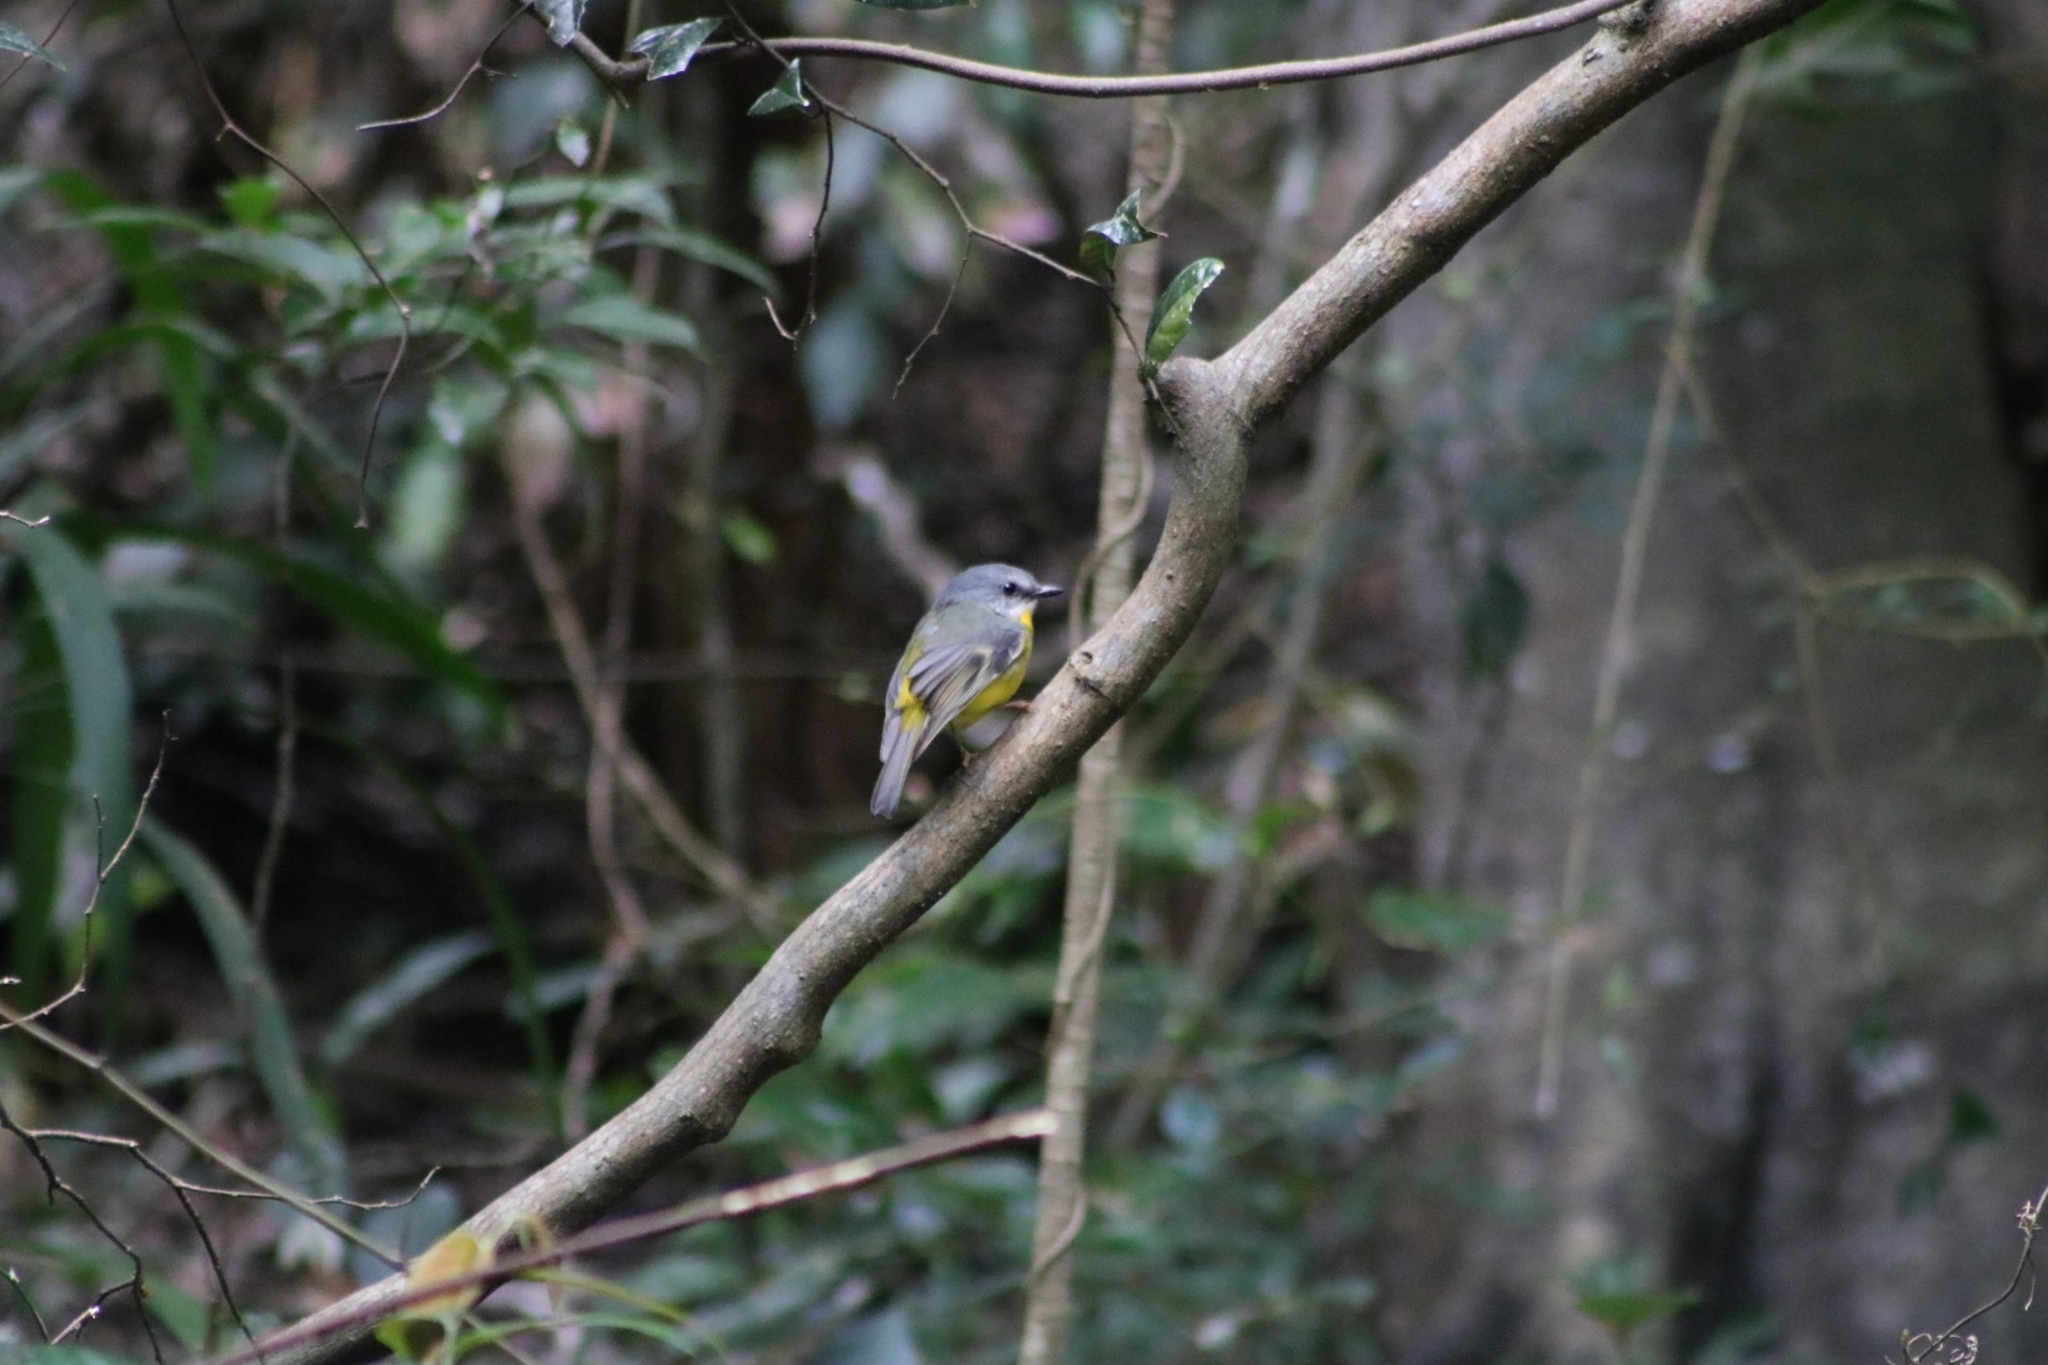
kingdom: Animalia
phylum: Chordata
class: Aves
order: Passeriformes
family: Petroicidae
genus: Eopsaltria
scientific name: Eopsaltria australis
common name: Eastern yellow robin
